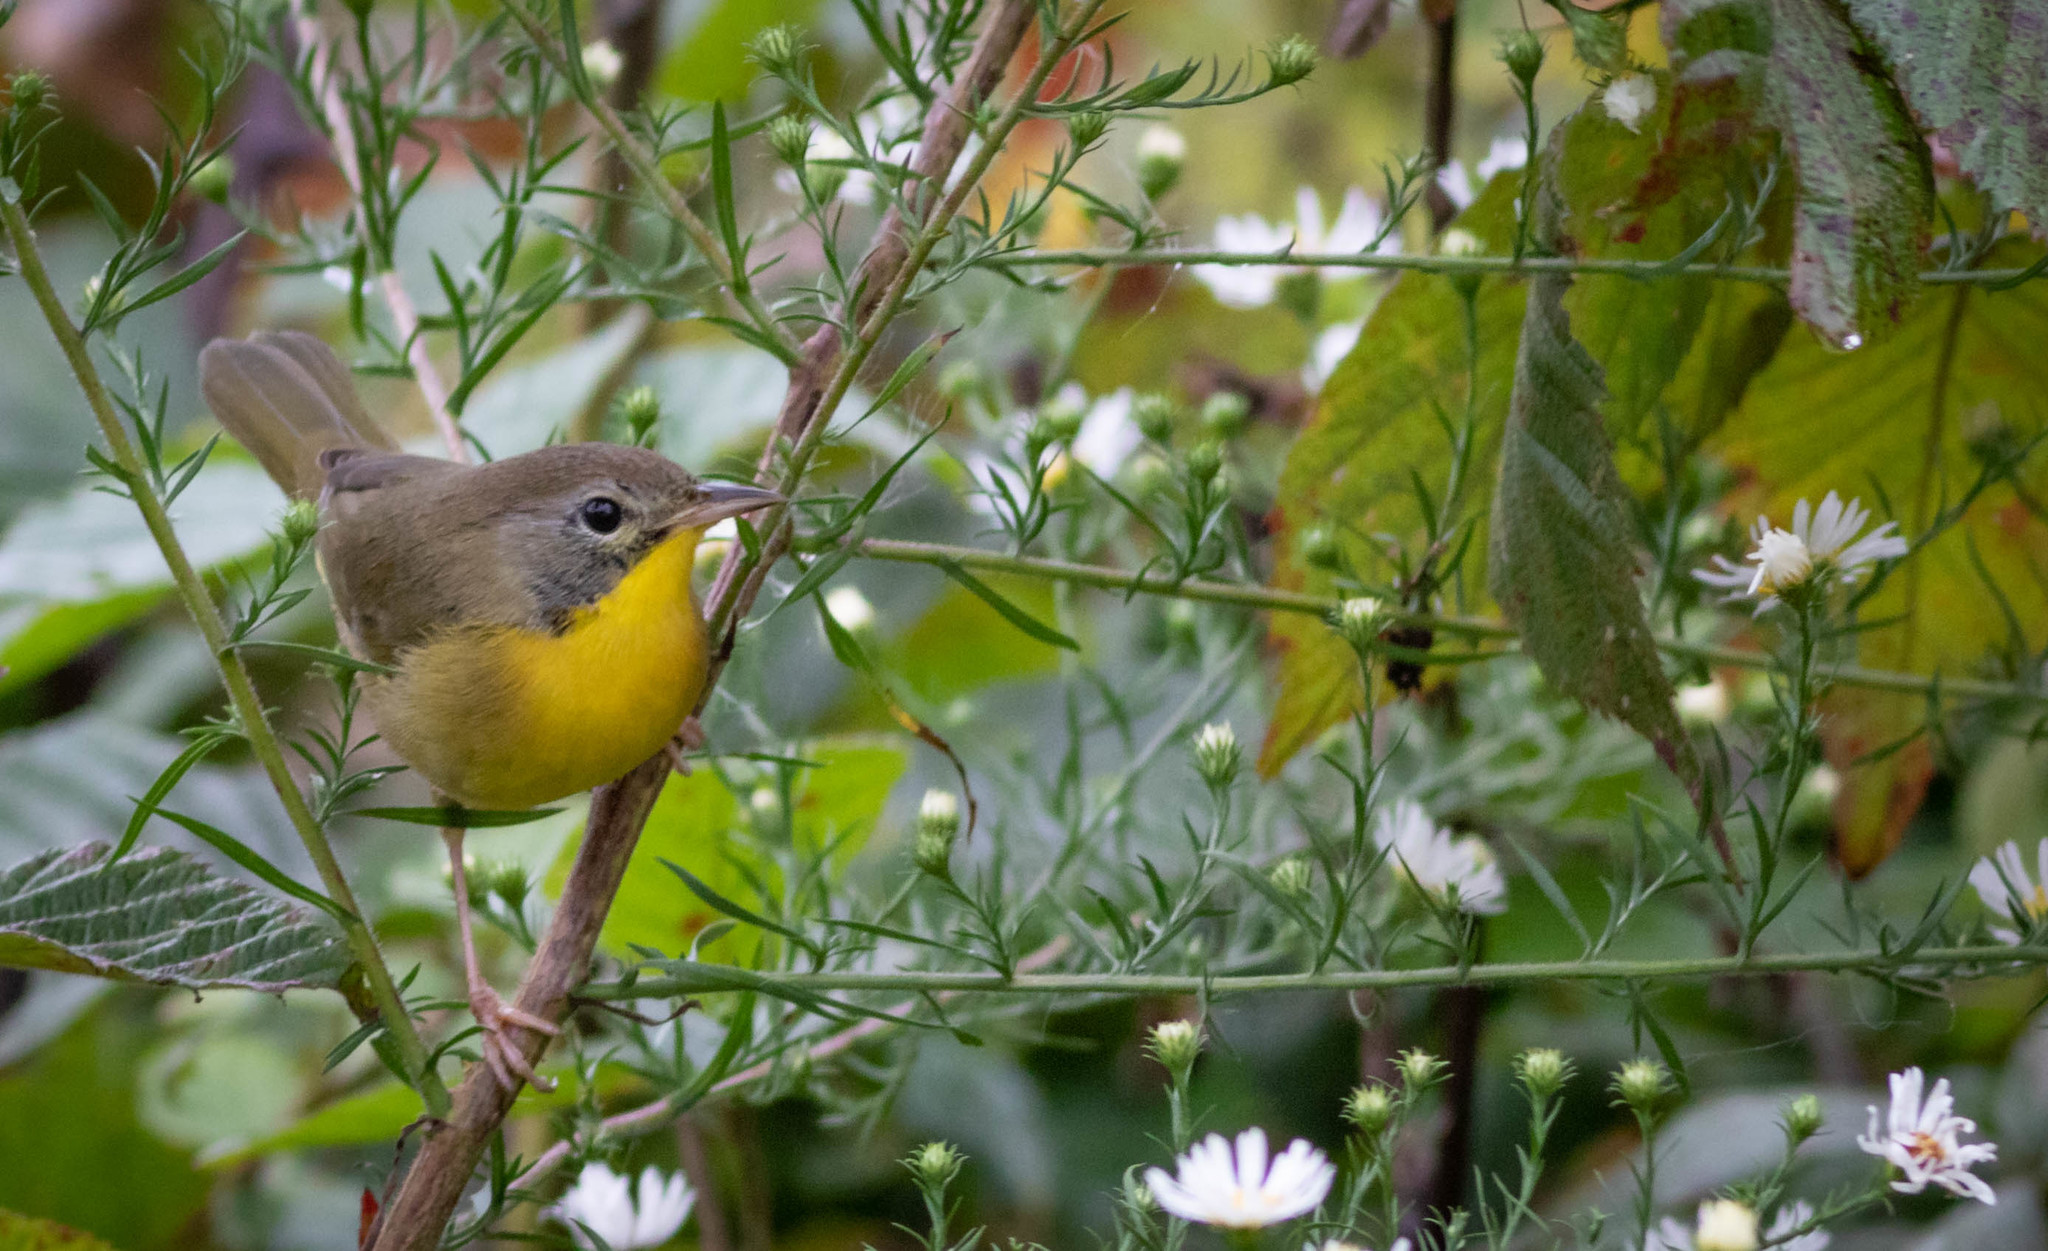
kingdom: Animalia
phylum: Chordata
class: Aves
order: Passeriformes
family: Parulidae
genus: Geothlypis
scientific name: Geothlypis trichas
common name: Common yellowthroat
